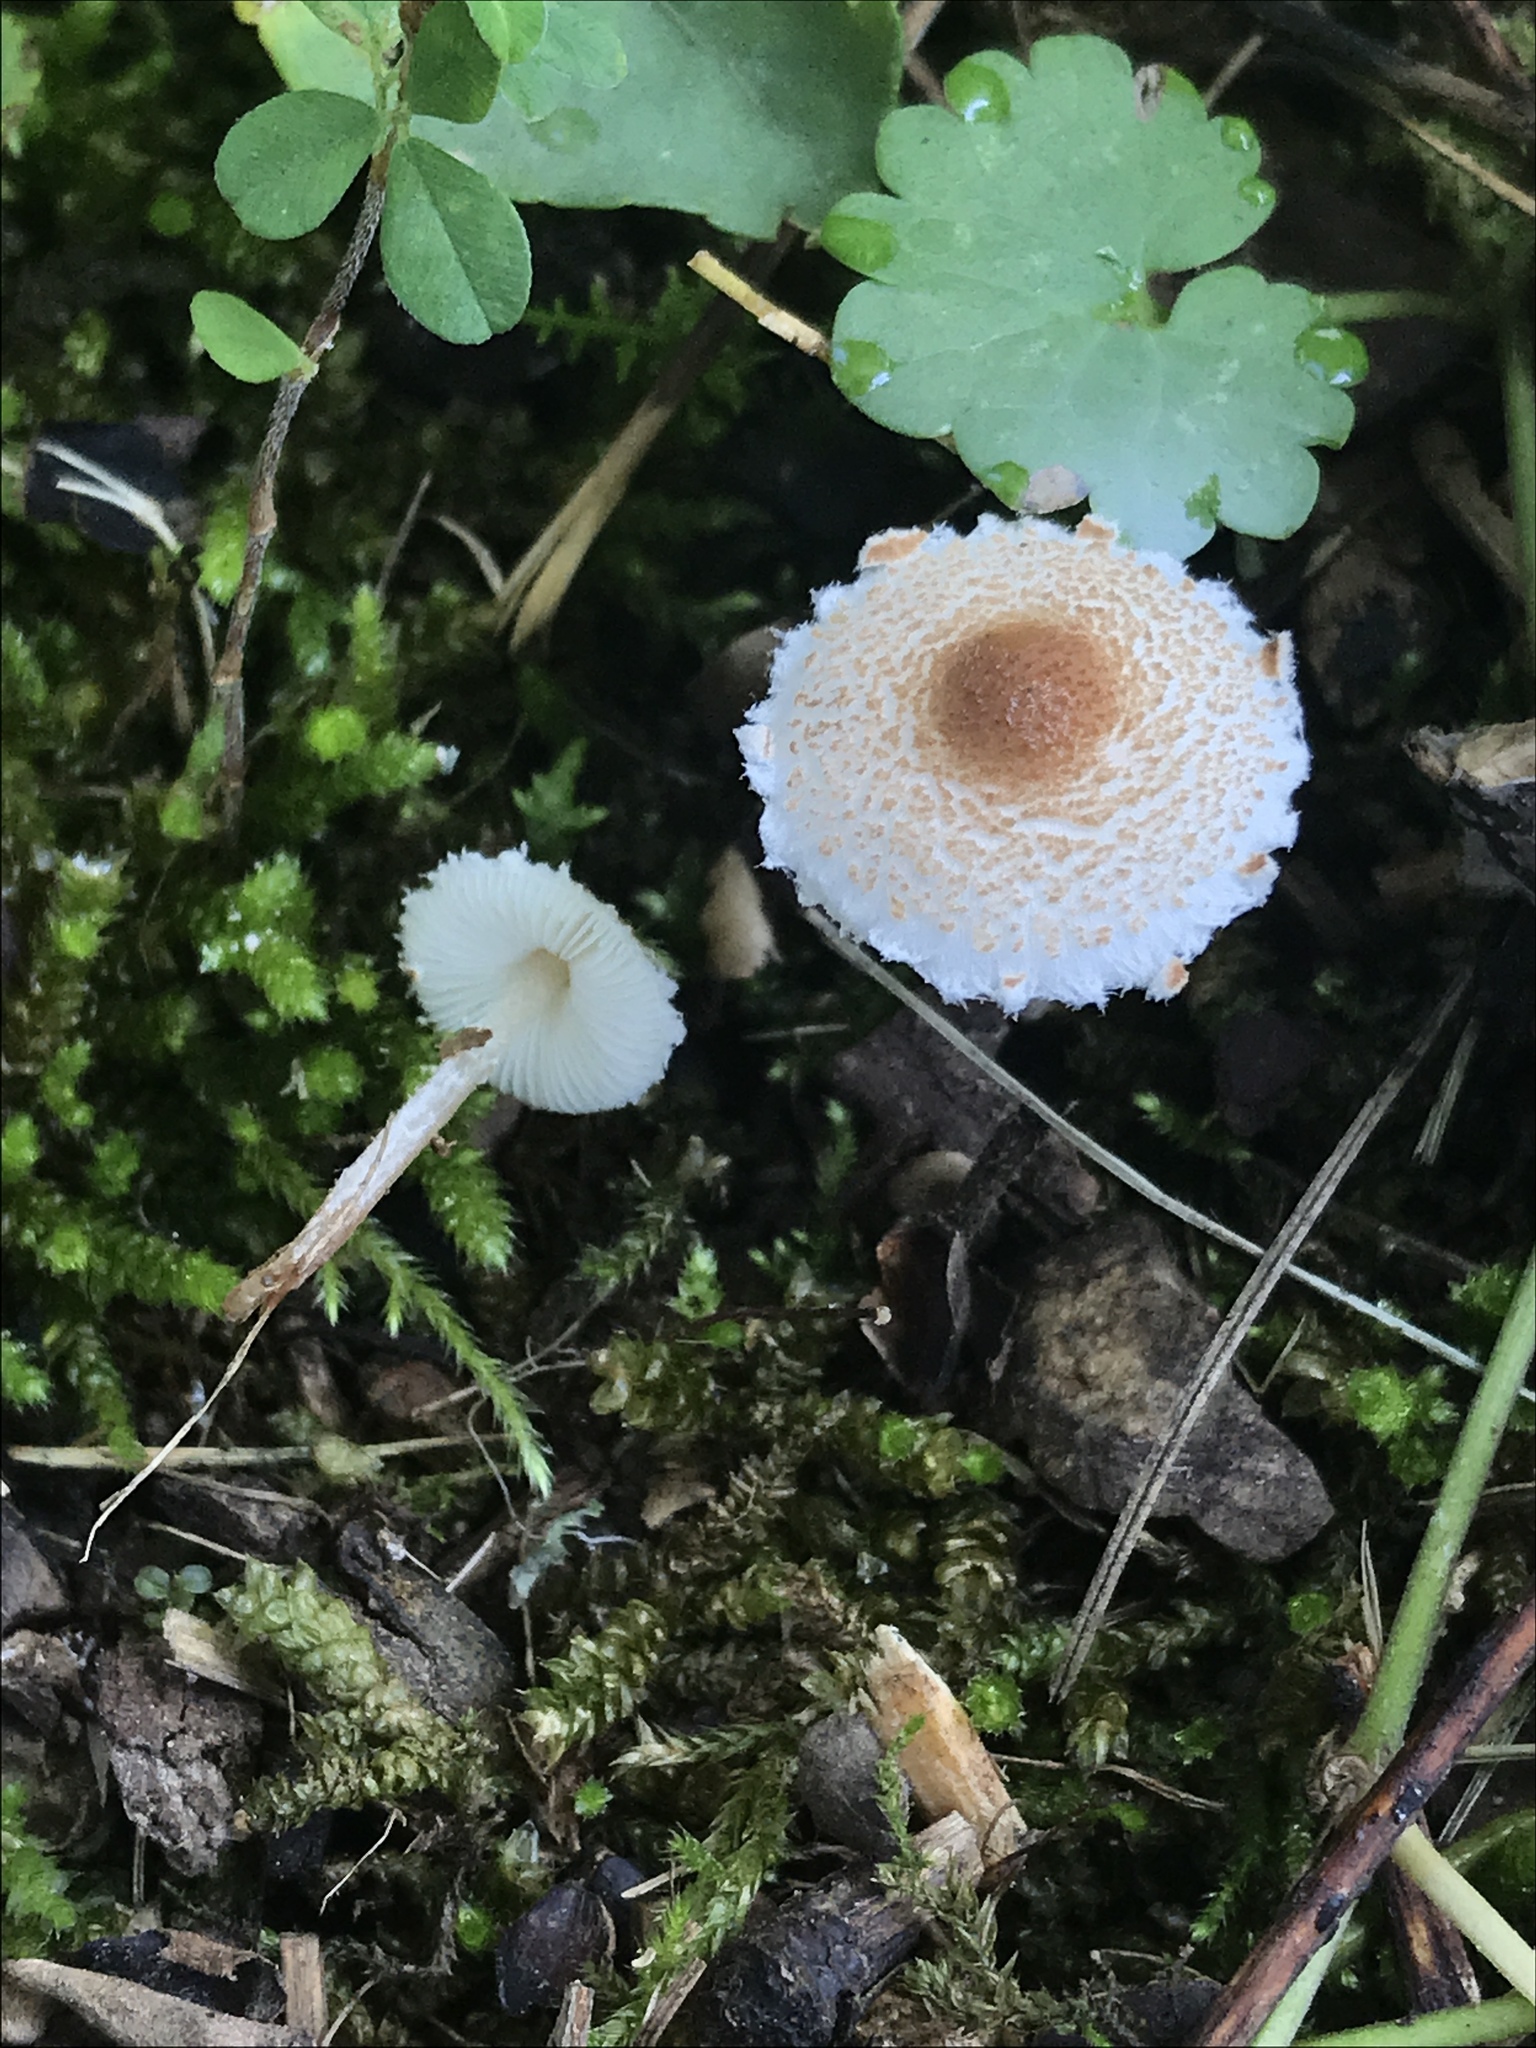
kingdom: Fungi
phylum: Basidiomycota
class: Agaricomycetes
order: Agaricales
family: Agaricaceae
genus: Lepiota
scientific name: Lepiota cristata
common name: Stinking dapperling
